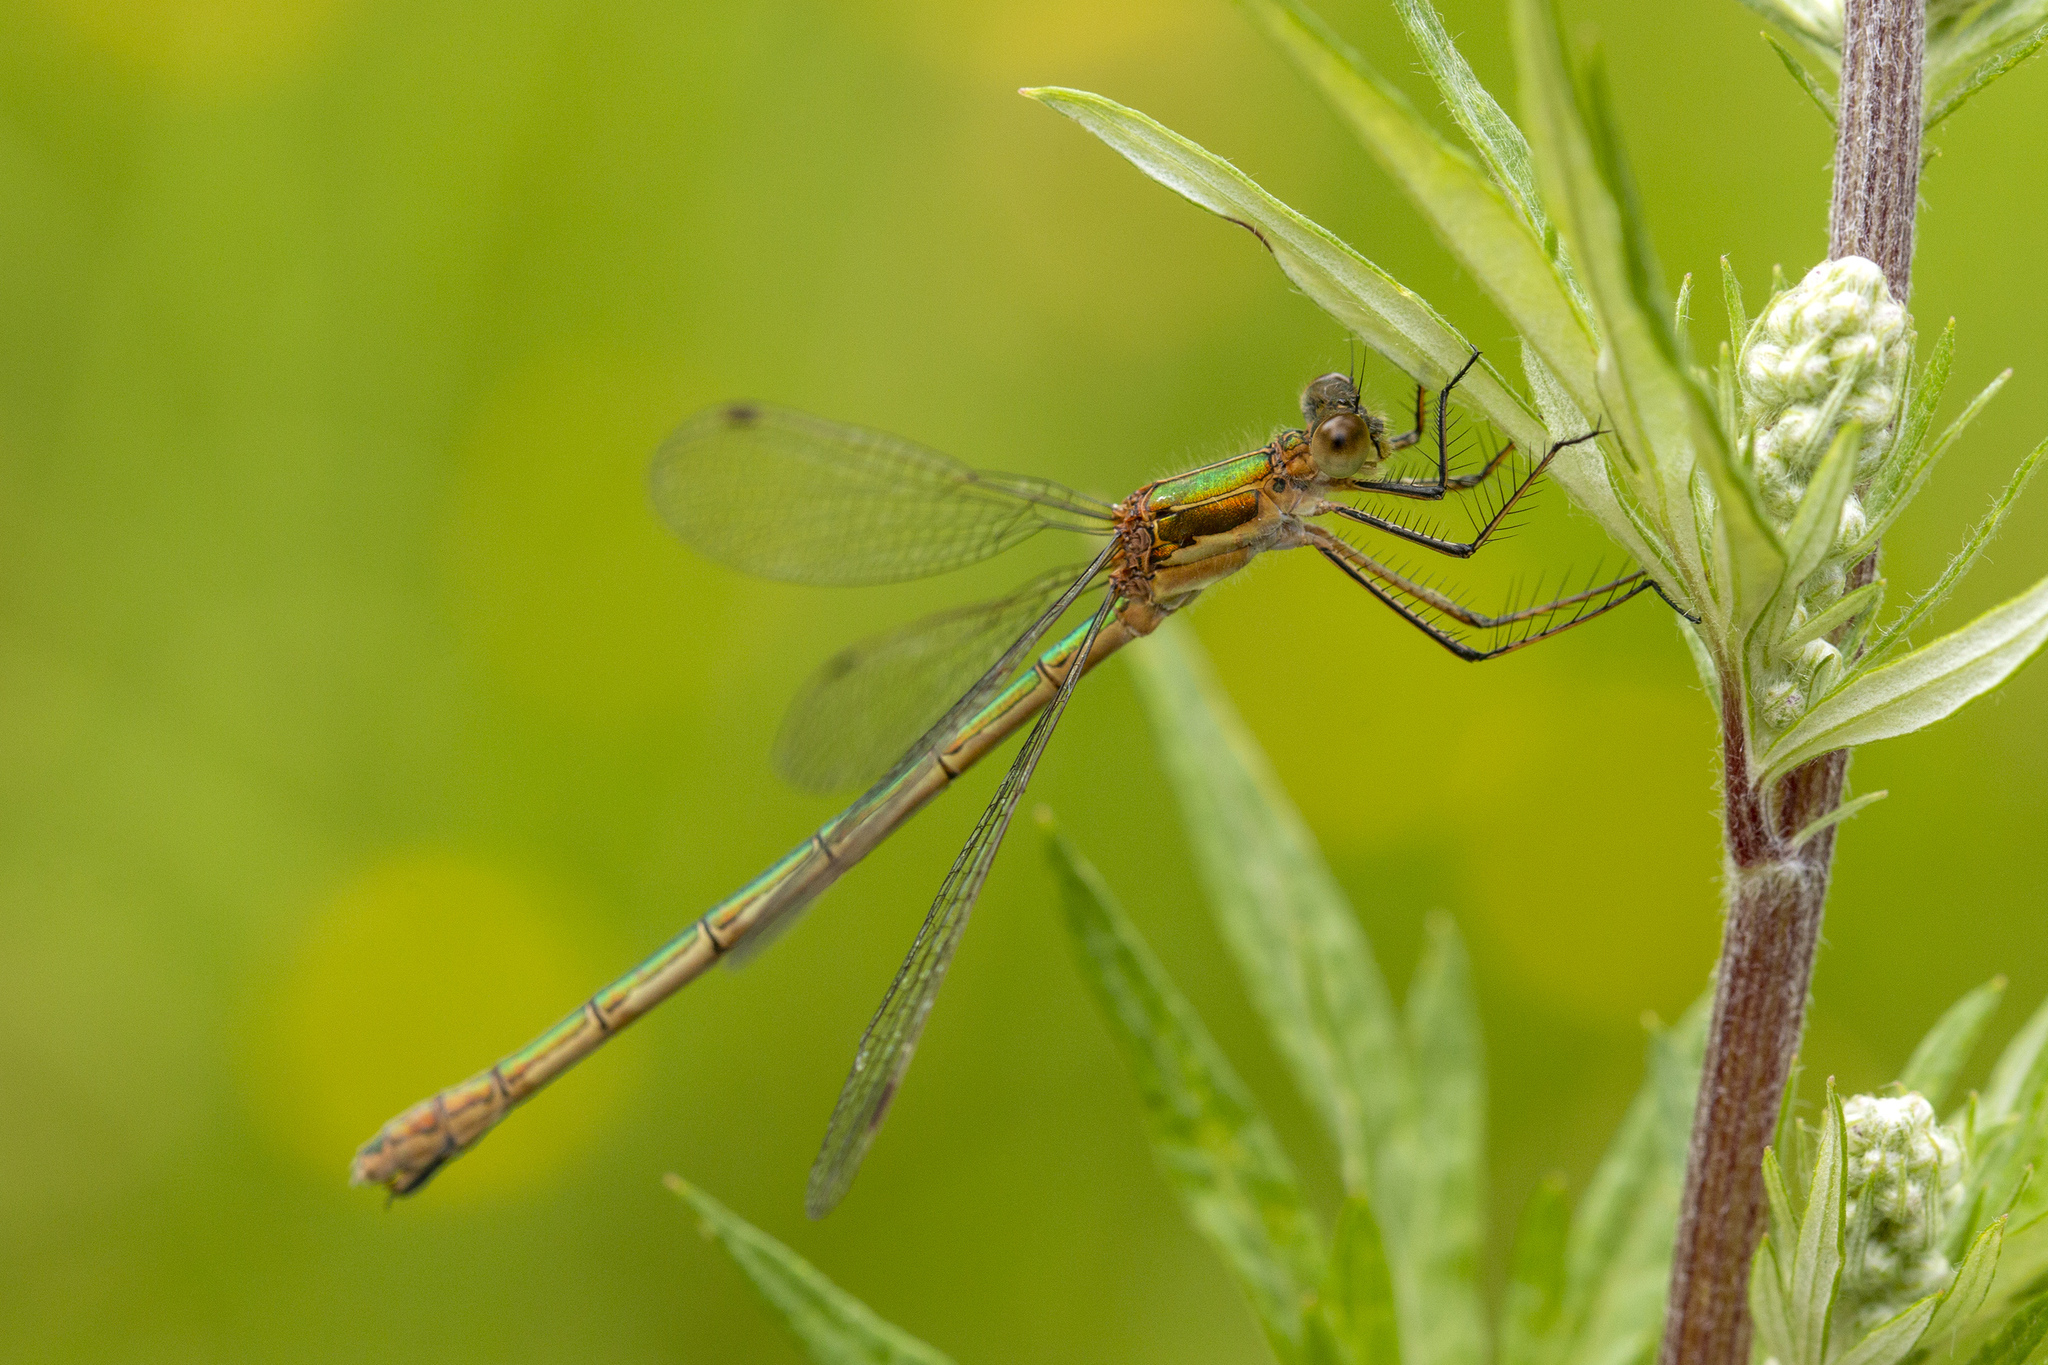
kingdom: Animalia
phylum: Arthropoda
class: Insecta
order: Odonata
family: Lestidae
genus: Lestes
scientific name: Lestes sponsa
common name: Common spreadwing
